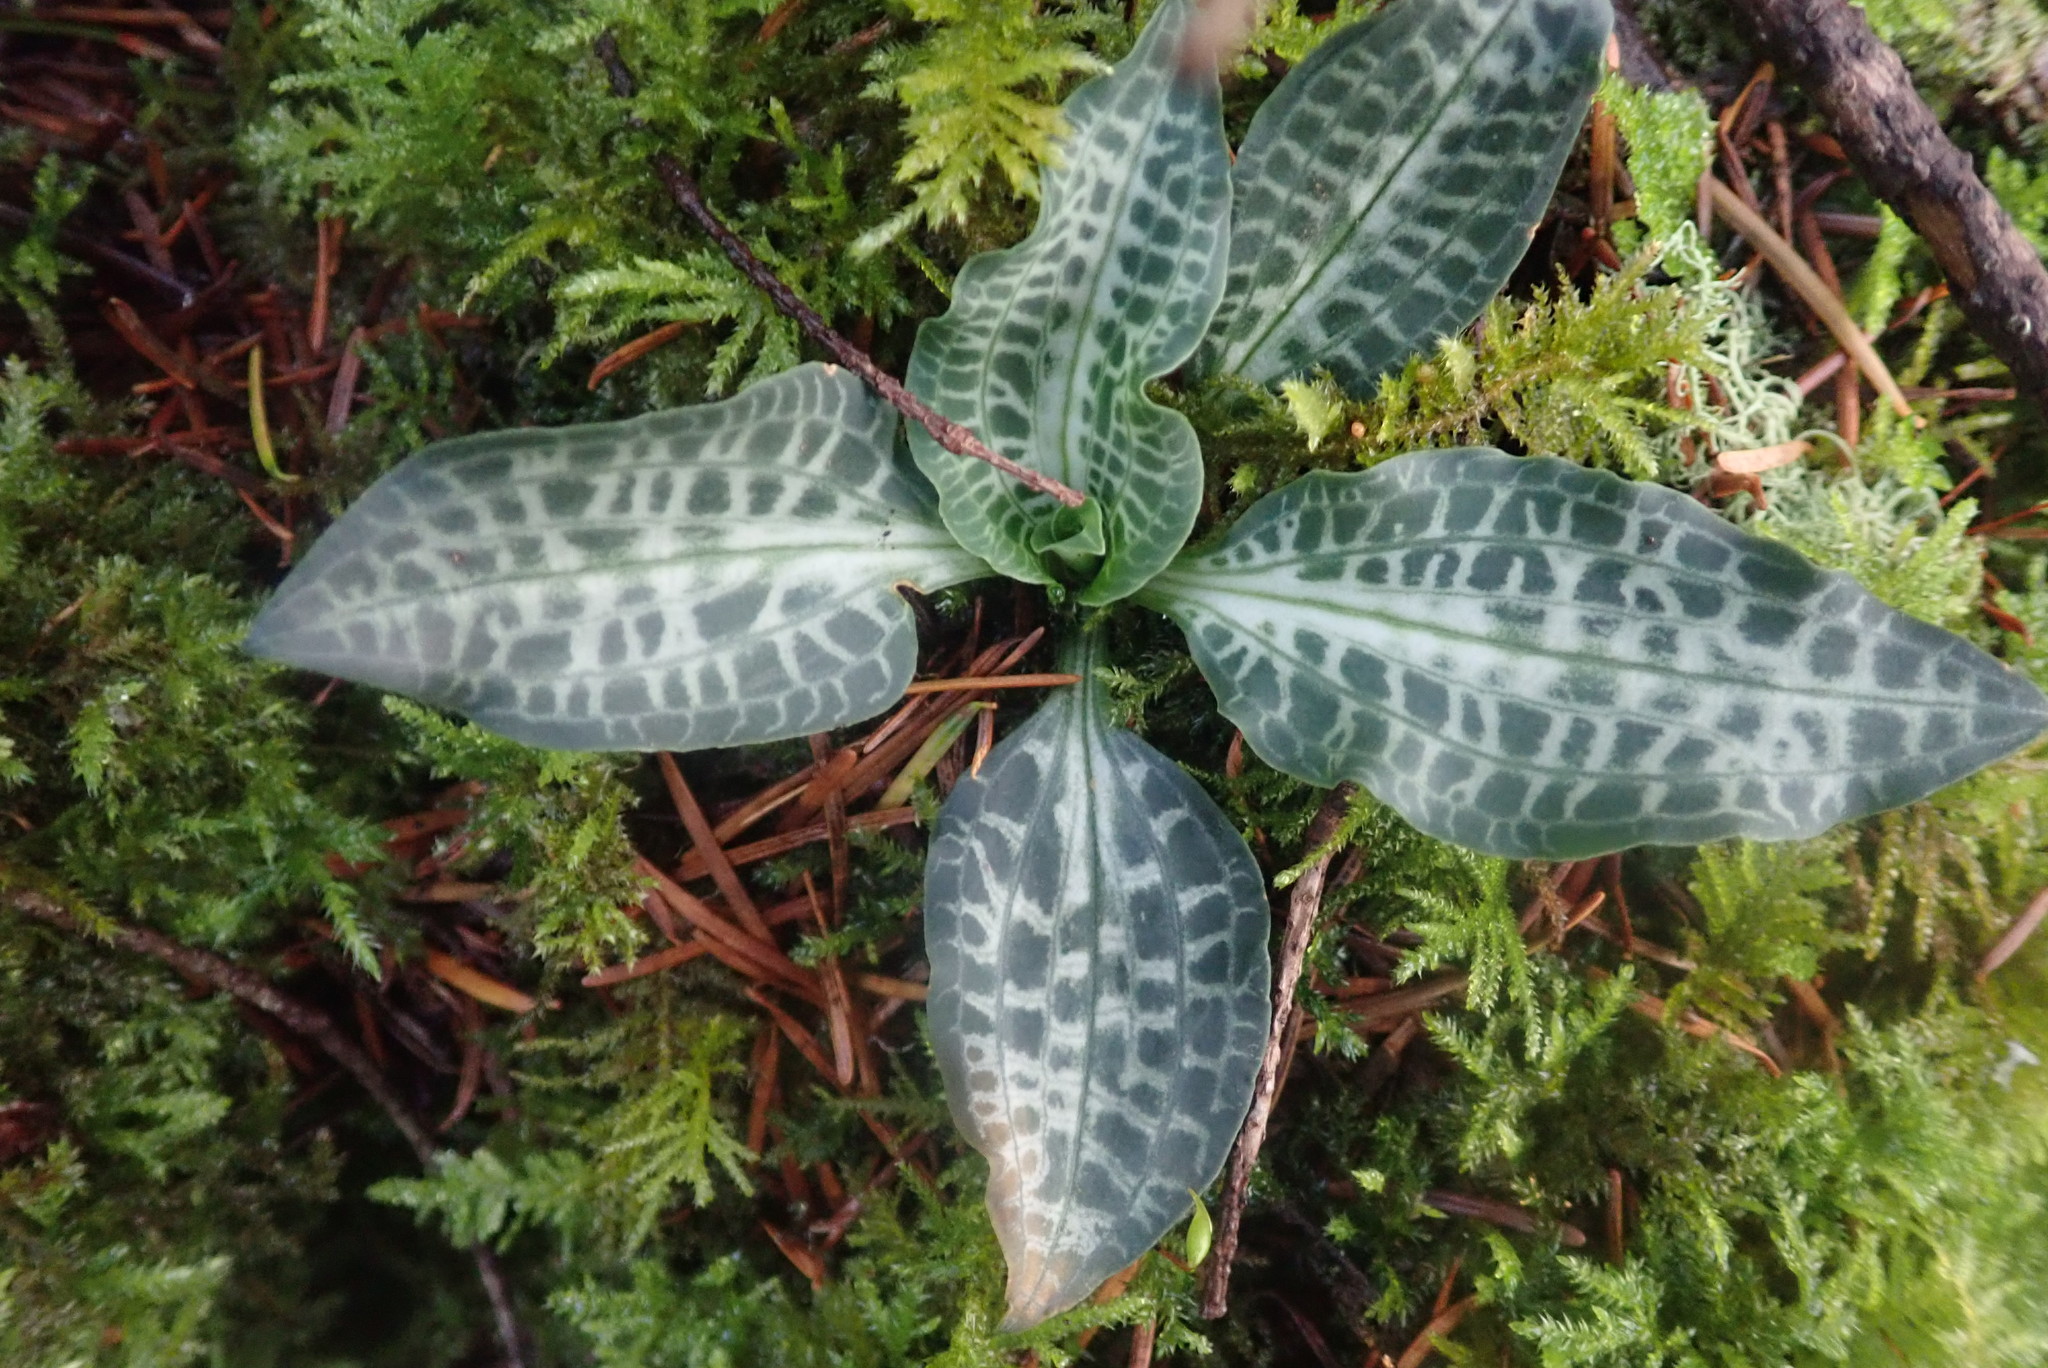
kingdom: Plantae
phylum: Tracheophyta
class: Liliopsida
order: Asparagales
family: Orchidaceae
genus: Goodyera
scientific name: Goodyera oblongifolia
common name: Giant rattlesnake-plantain
